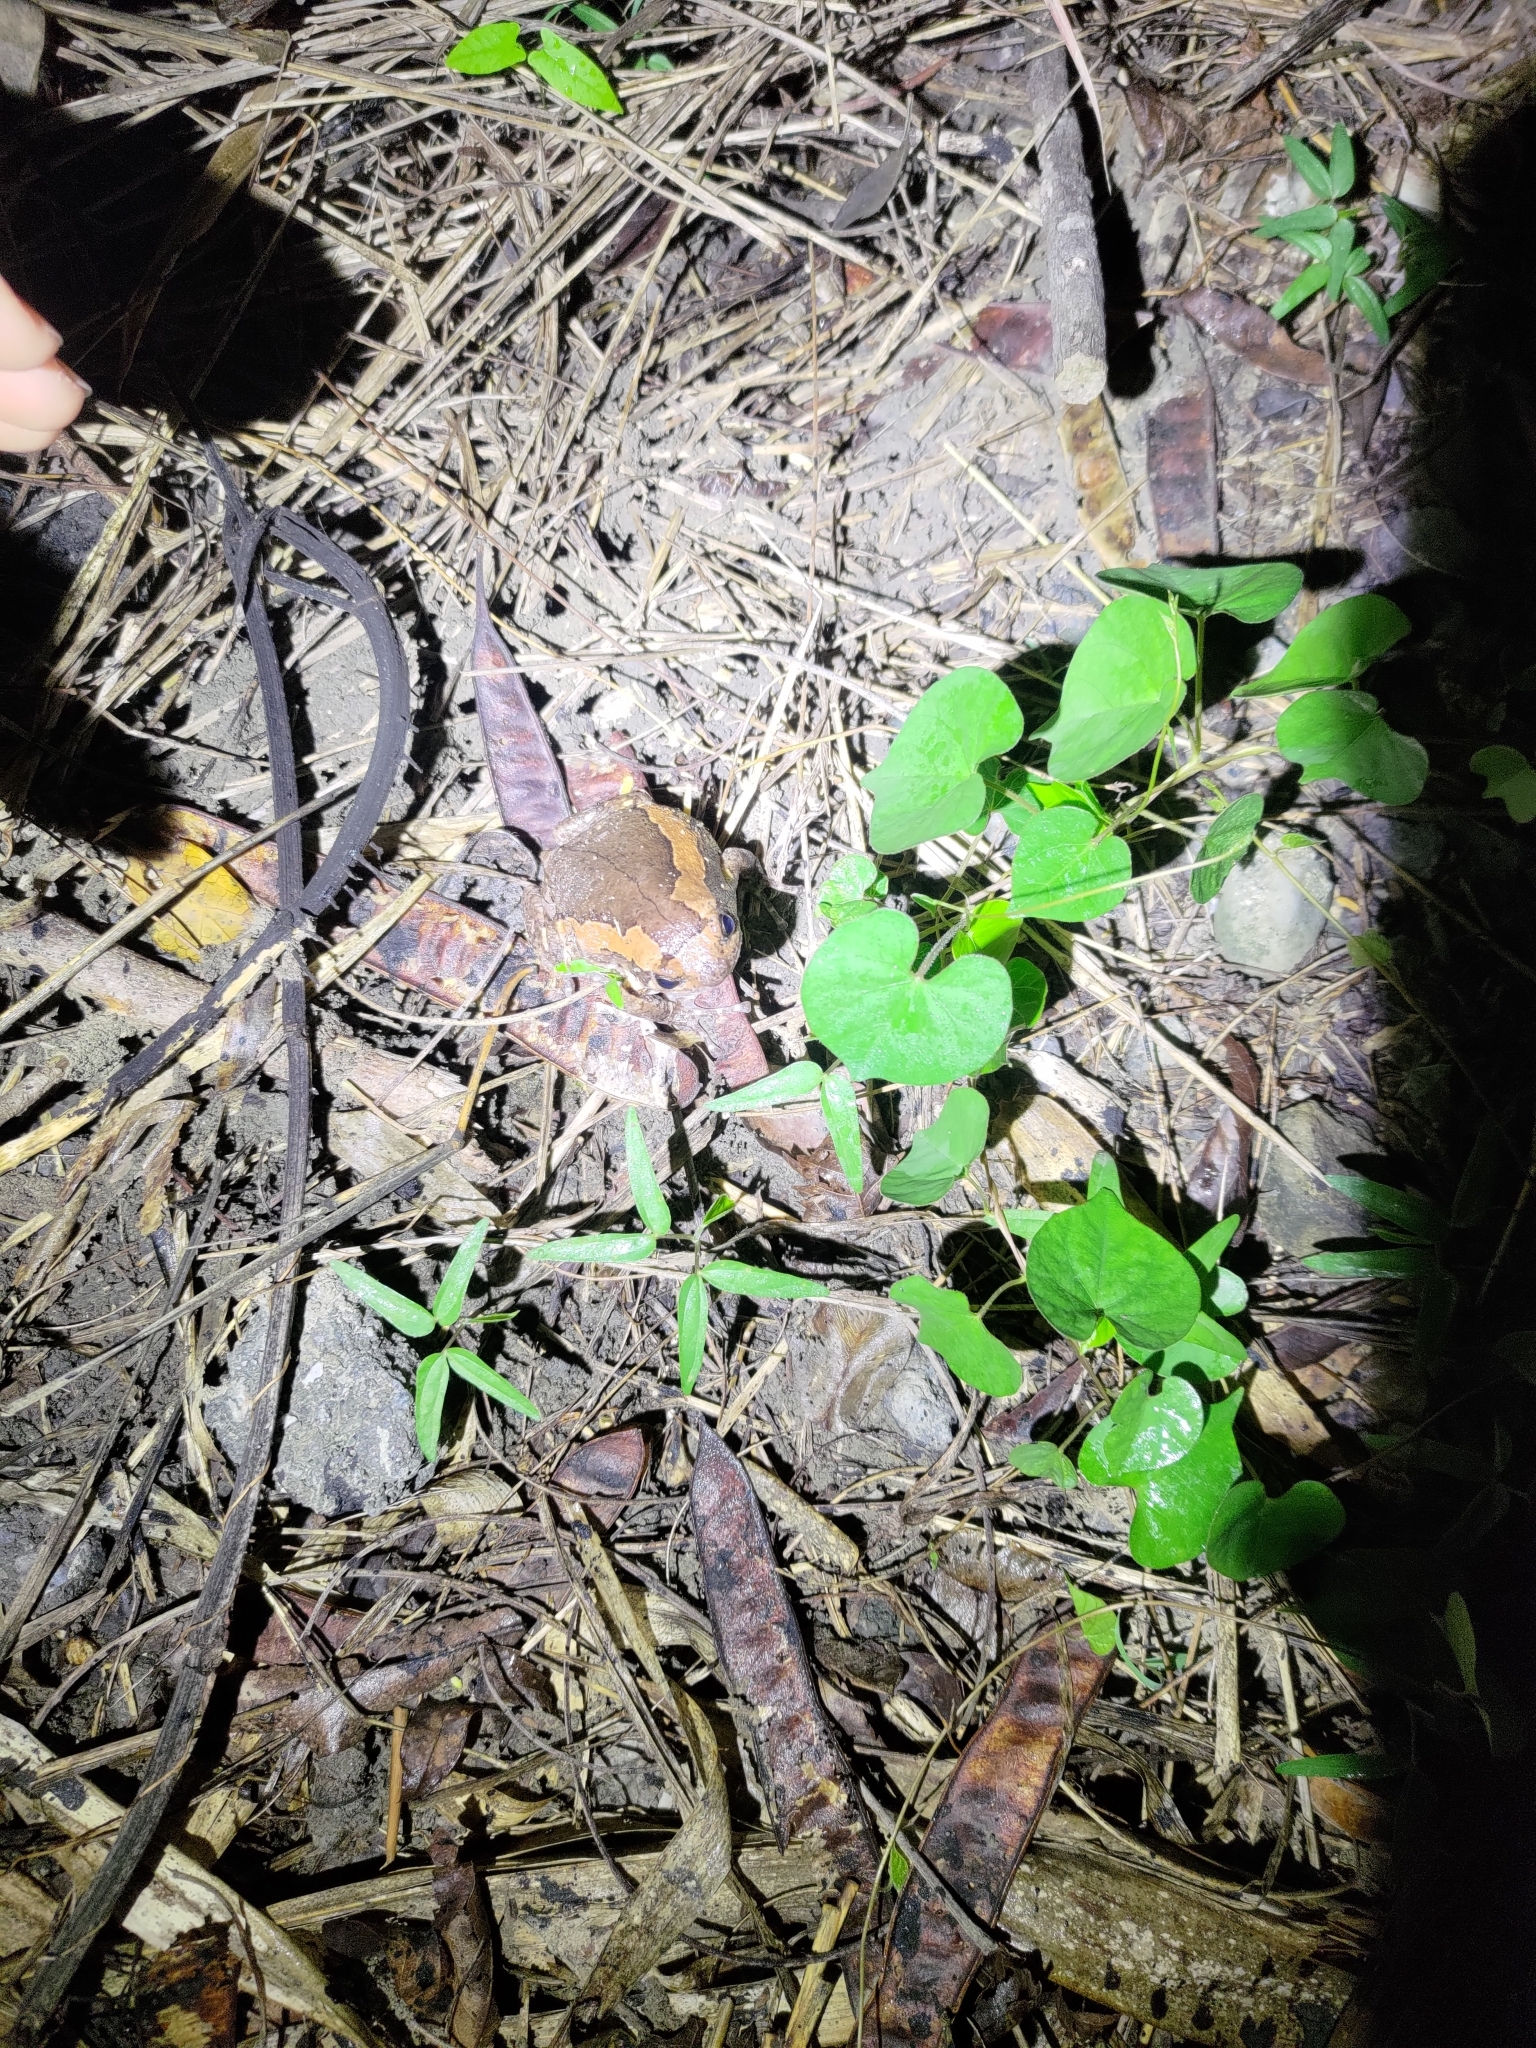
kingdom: Animalia
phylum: Chordata
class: Amphibia
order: Anura
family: Microhylidae
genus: Kaloula
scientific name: Kaloula pulchra
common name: Common,banded bullfrog
